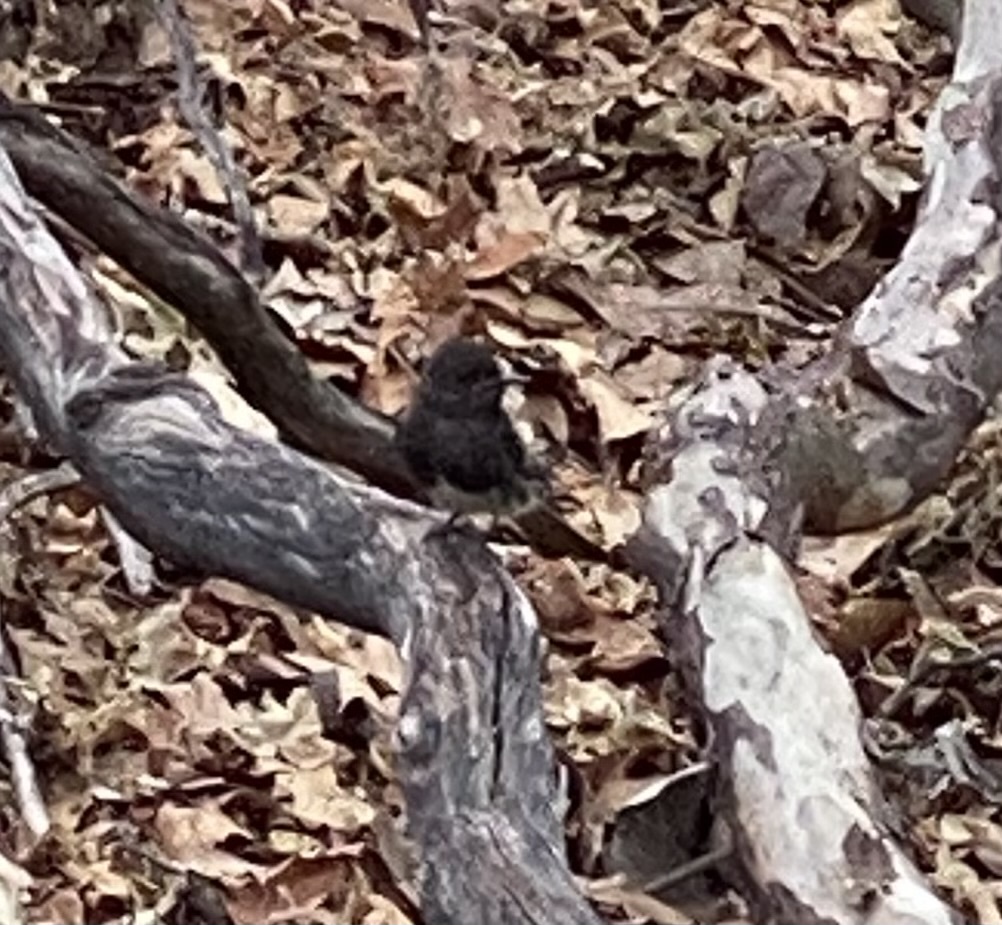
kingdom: Animalia
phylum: Chordata
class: Aves
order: Passeriformes
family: Tyrannidae
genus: Sayornis
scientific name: Sayornis nigricans
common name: Black phoebe
